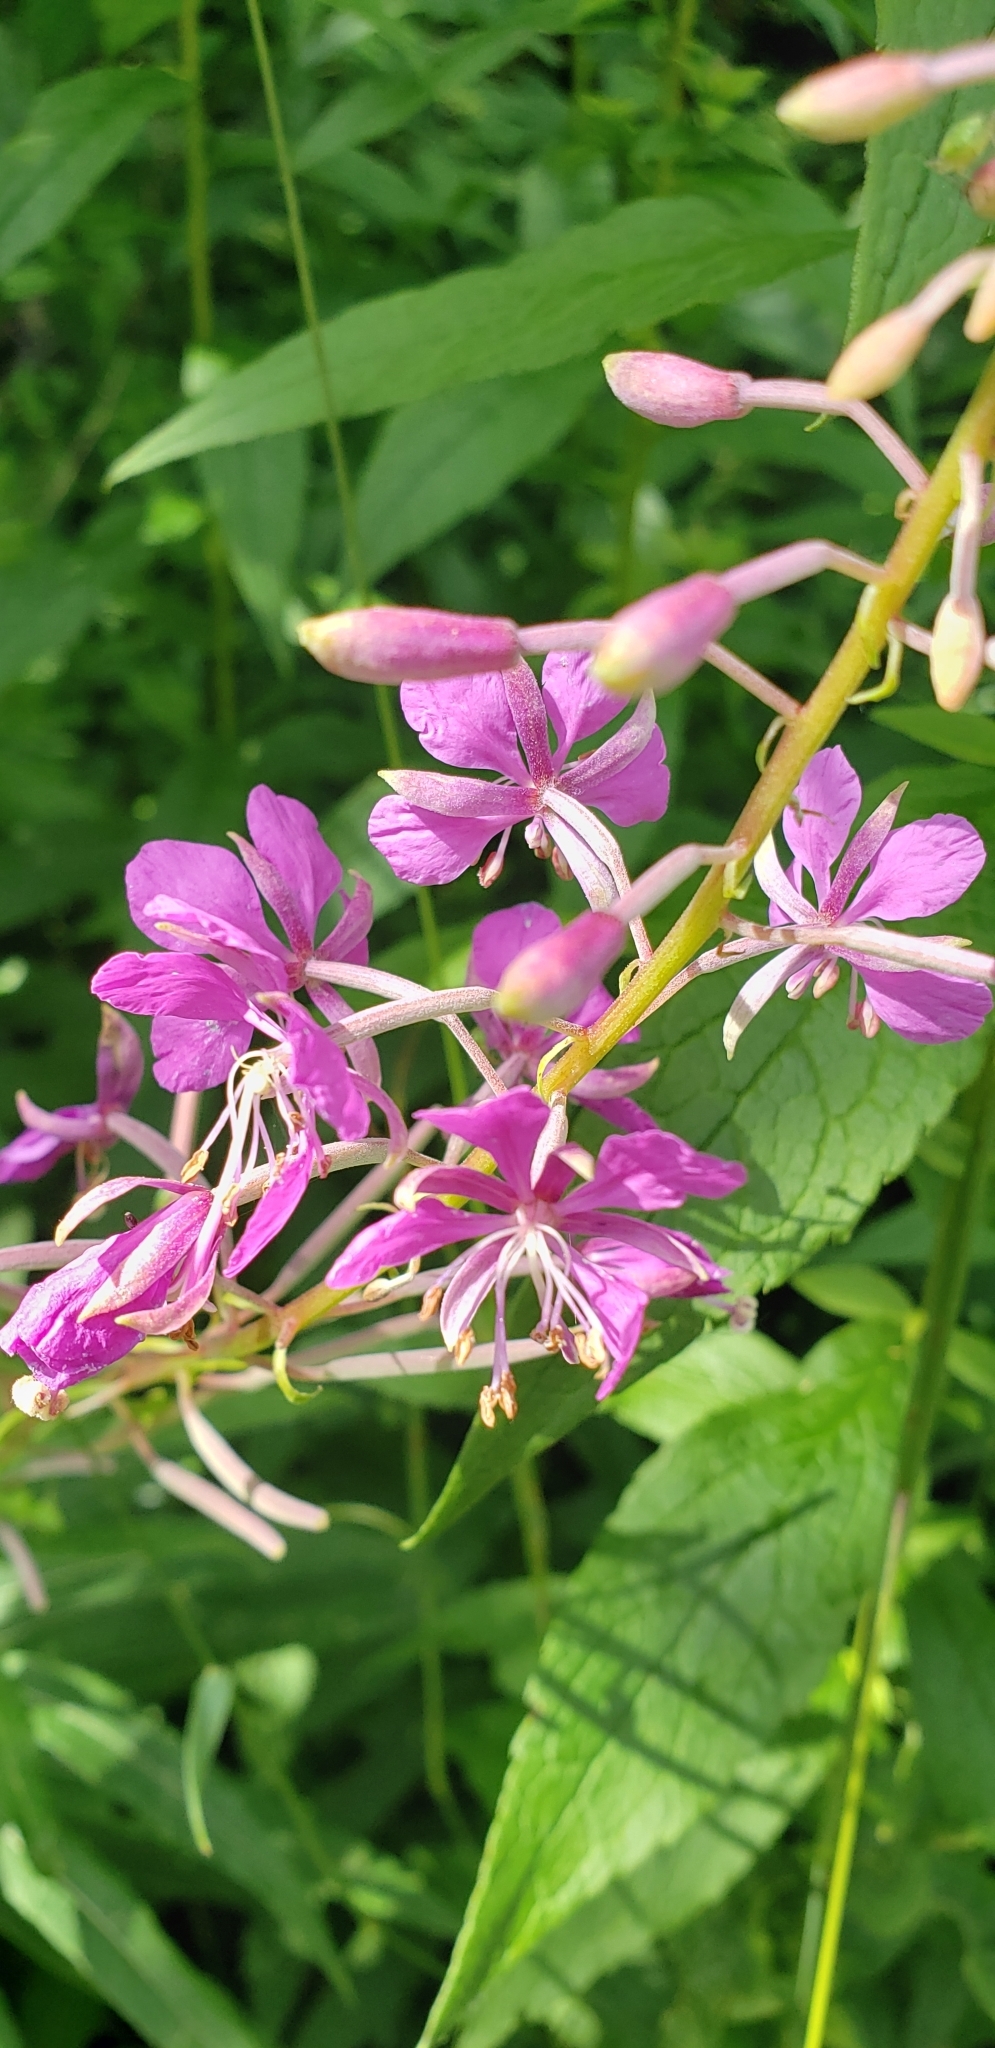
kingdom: Plantae
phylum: Tracheophyta
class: Magnoliopsida
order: Myrtales
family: Onagraceae
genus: Chamaenerion
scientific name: Chamaenerion angustifolium
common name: Fireweed
